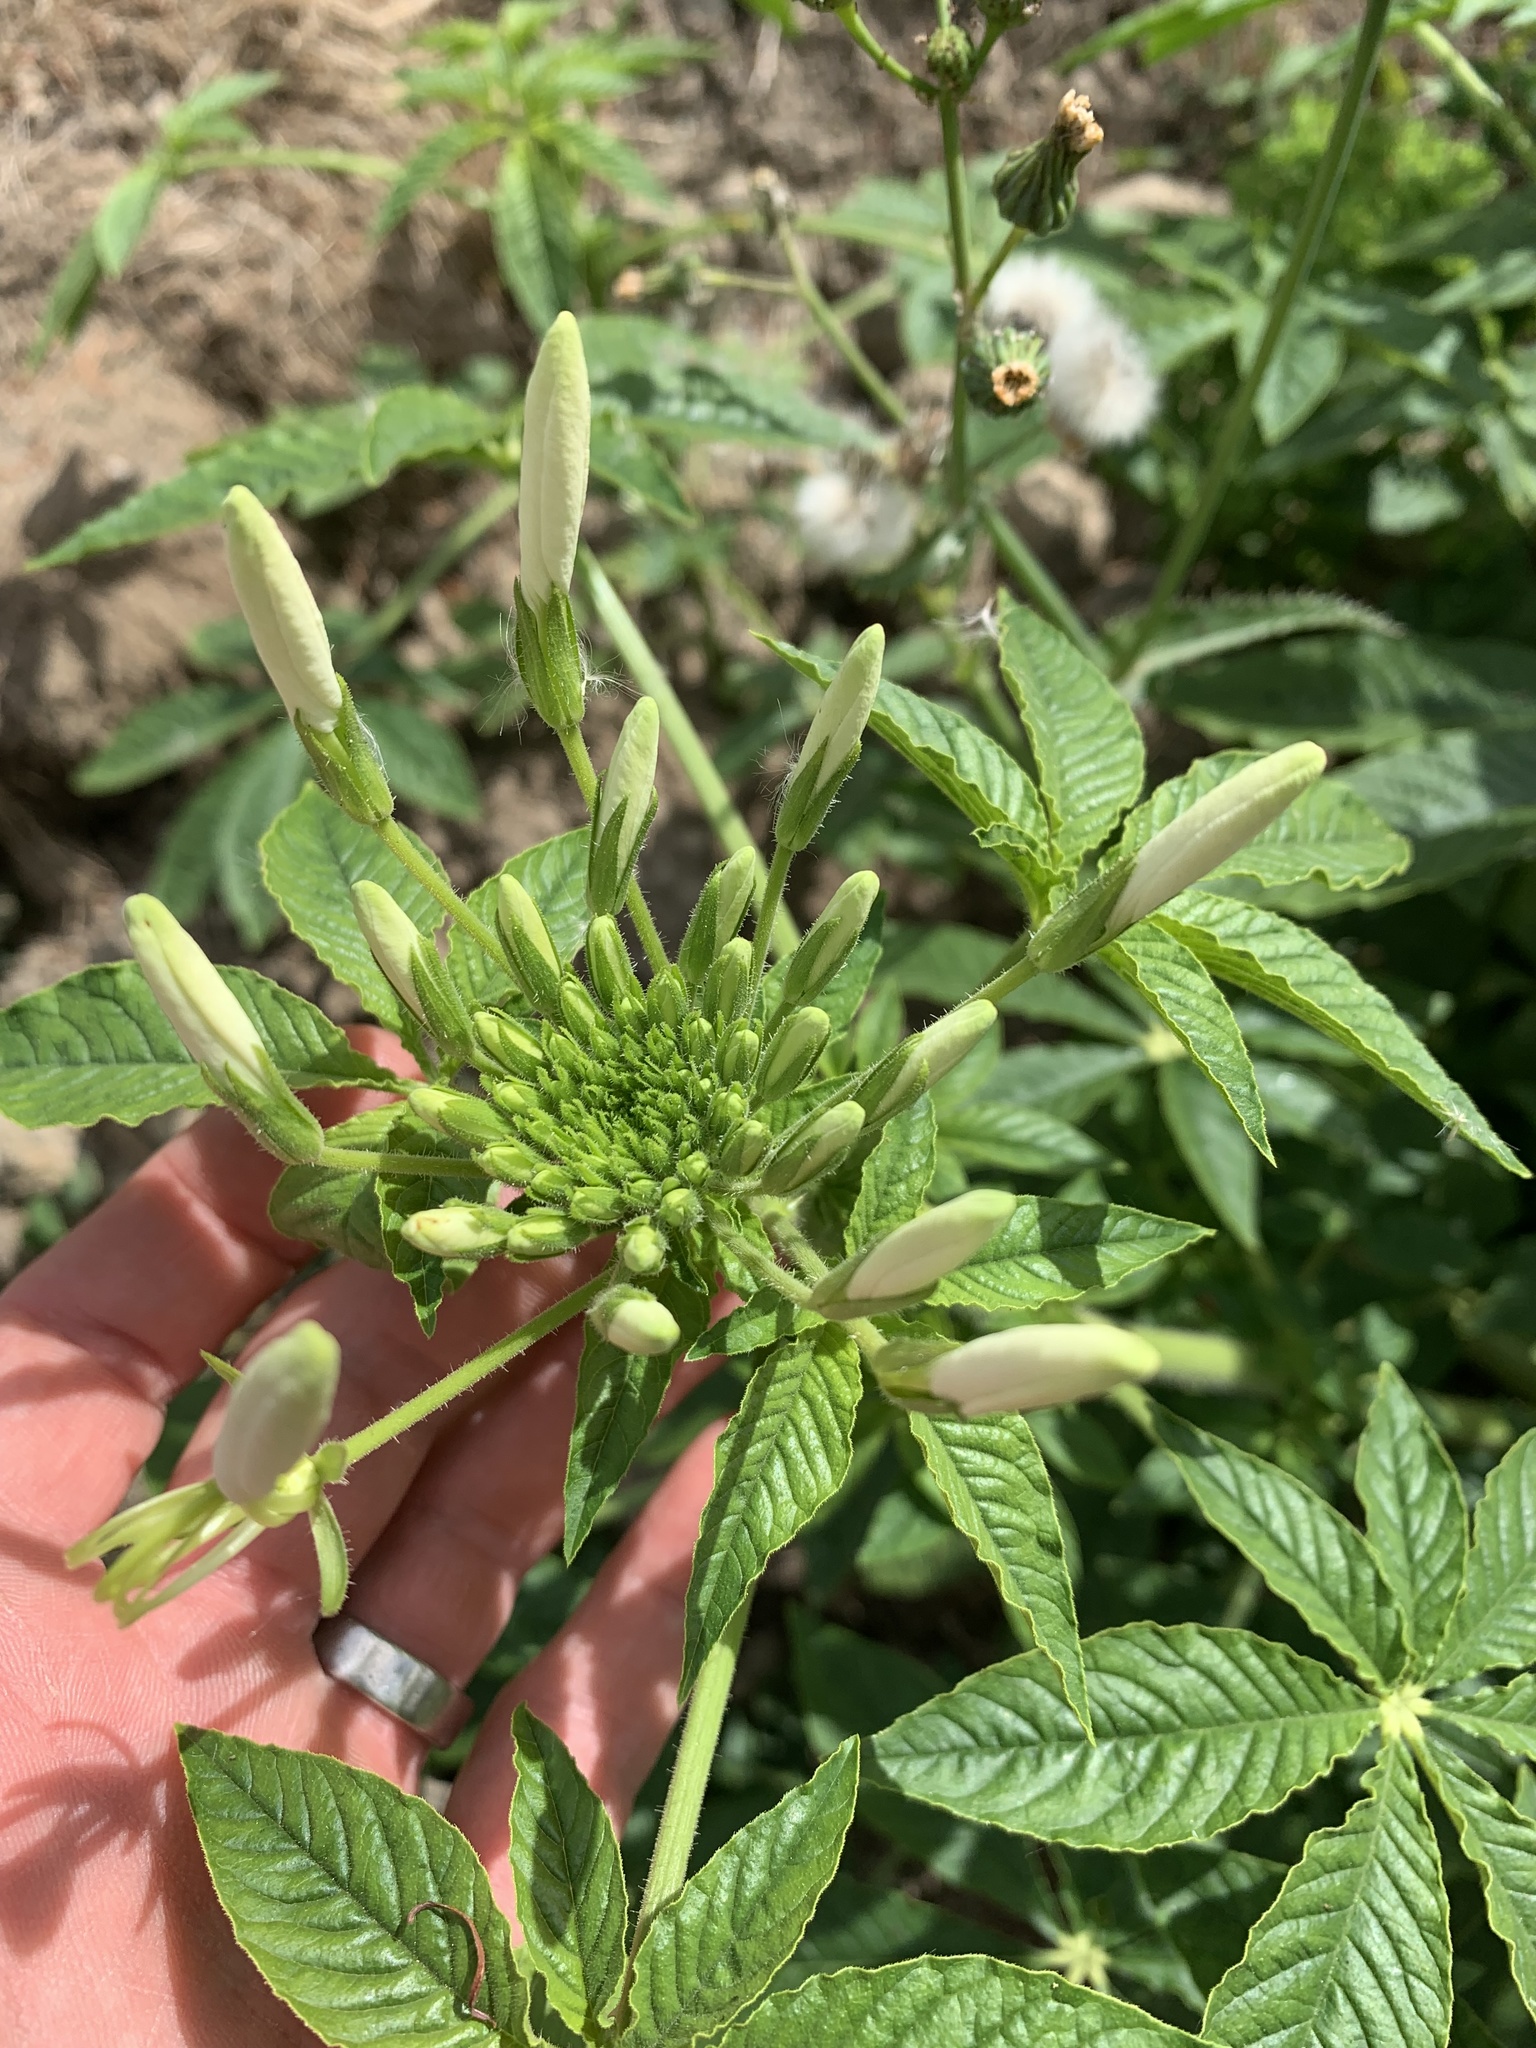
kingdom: Plantae
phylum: Tracheophyta
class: Magnoliopsida
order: Brassicales
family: Cleomaceae
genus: Tarenaya
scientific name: Tarenaya houtteana
